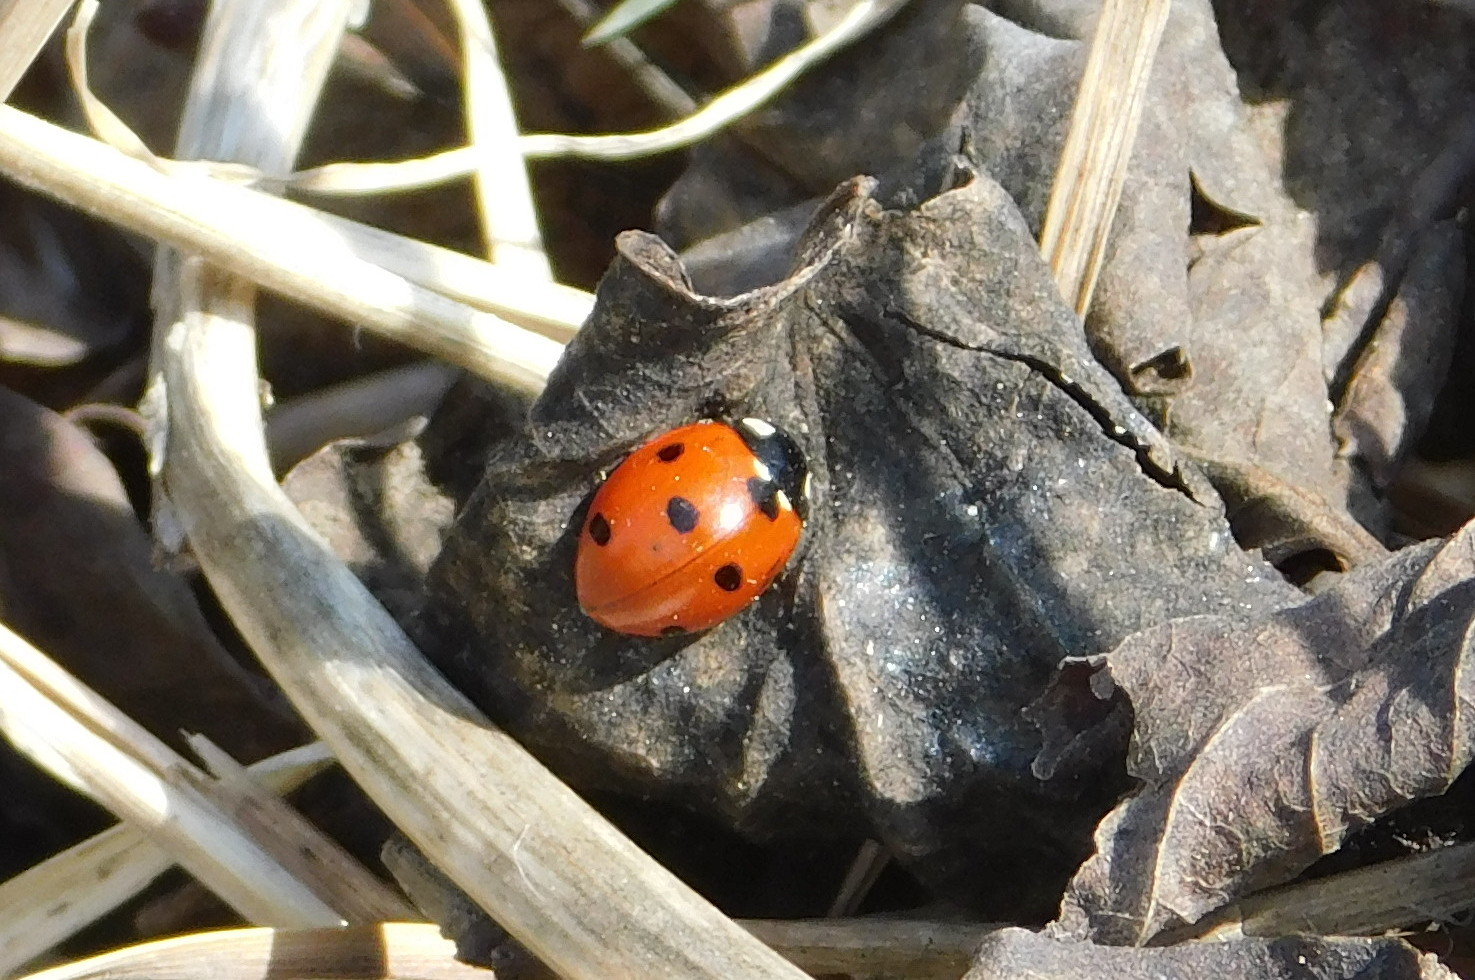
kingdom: Animalia
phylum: Arthropoda
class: Insecta
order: Coleoptera
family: Coccinellidae
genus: Coccinella
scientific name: Coccinella septempunctata
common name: Sevenspotted lady beetle
